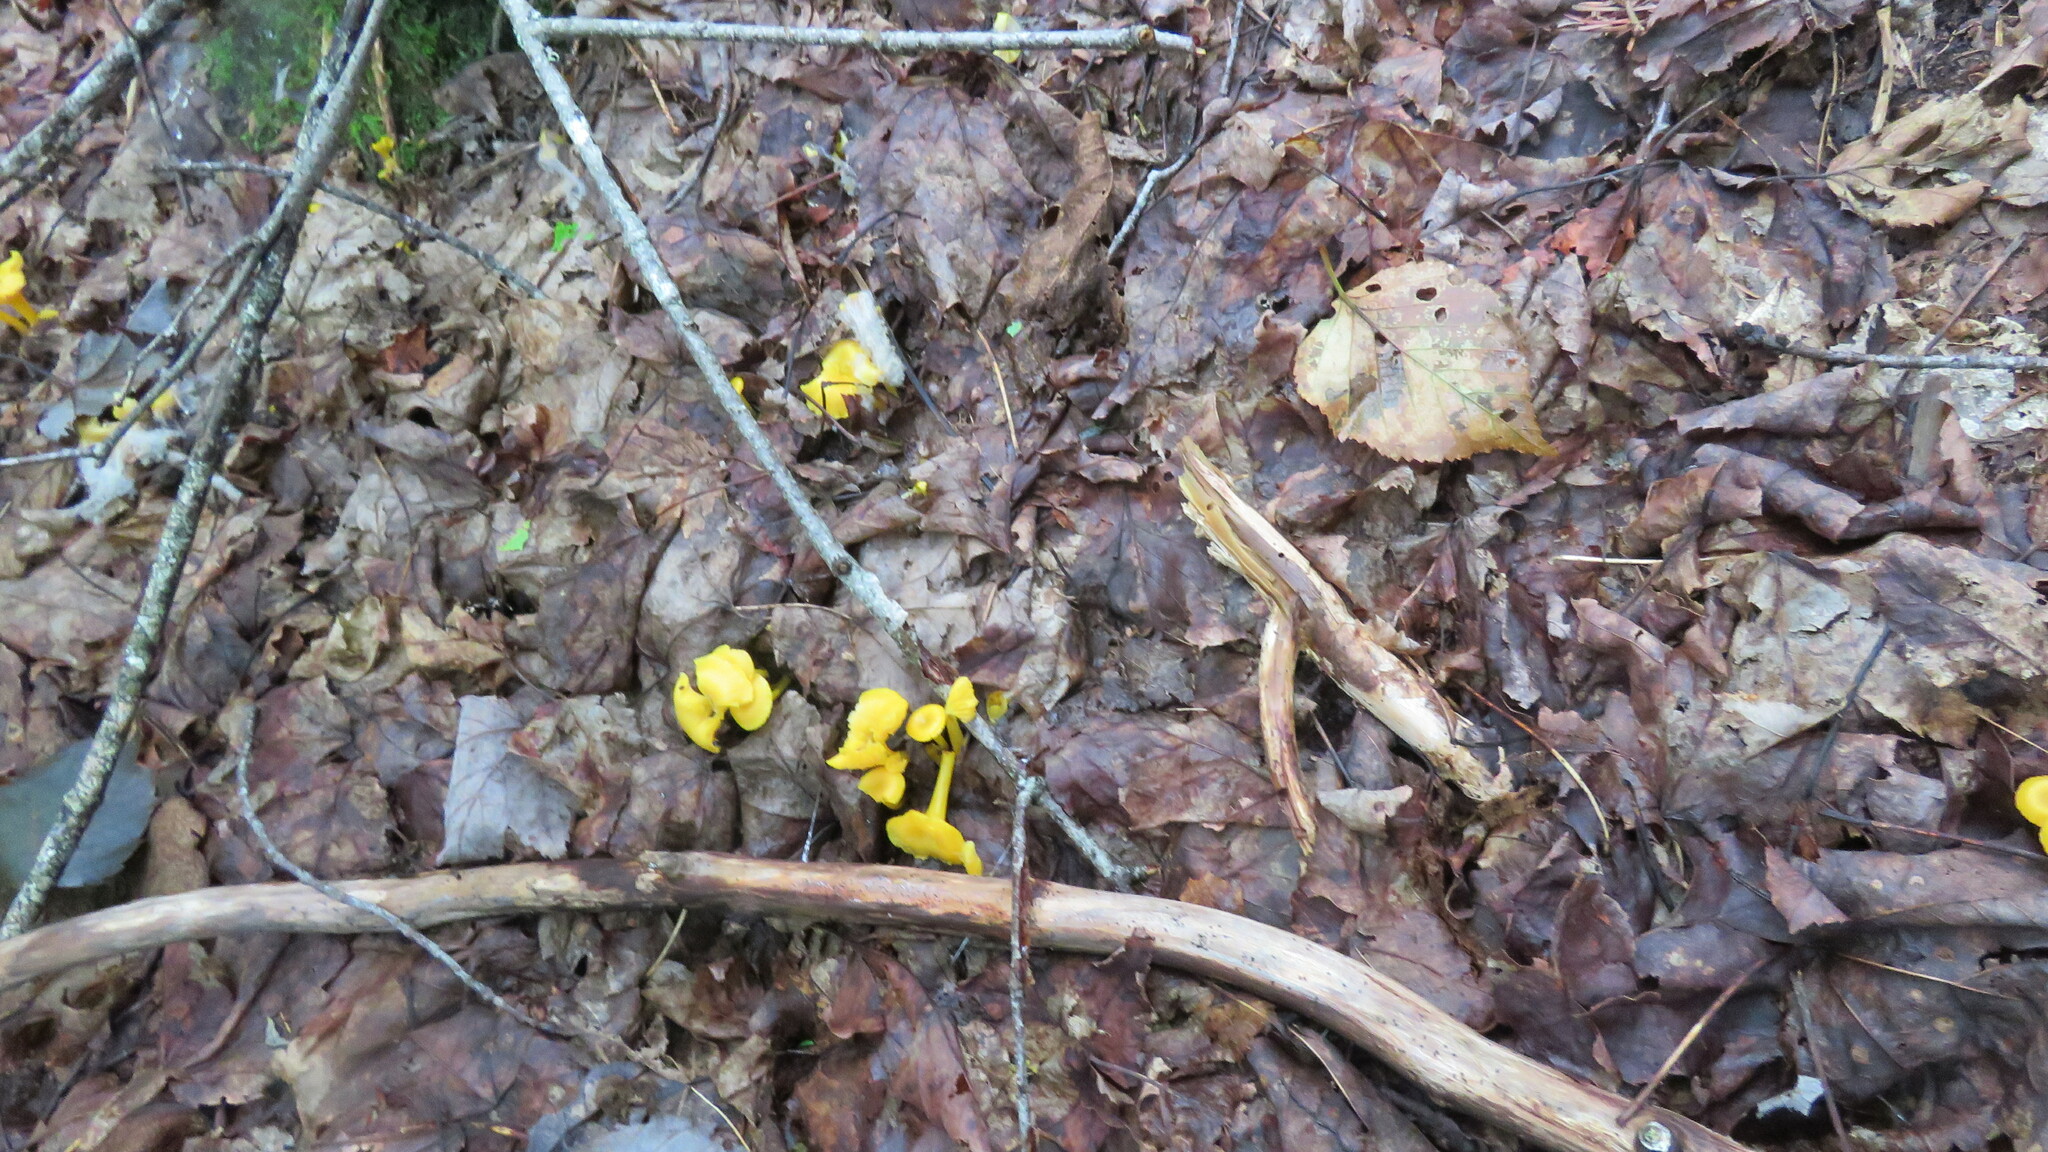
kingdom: Fungi
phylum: Basidiomycota
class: Agaricomycetes
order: Agaricales
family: Hygrophoraceae
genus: Gloioxanthomyces
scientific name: Gloioxanthomyces nitidus
